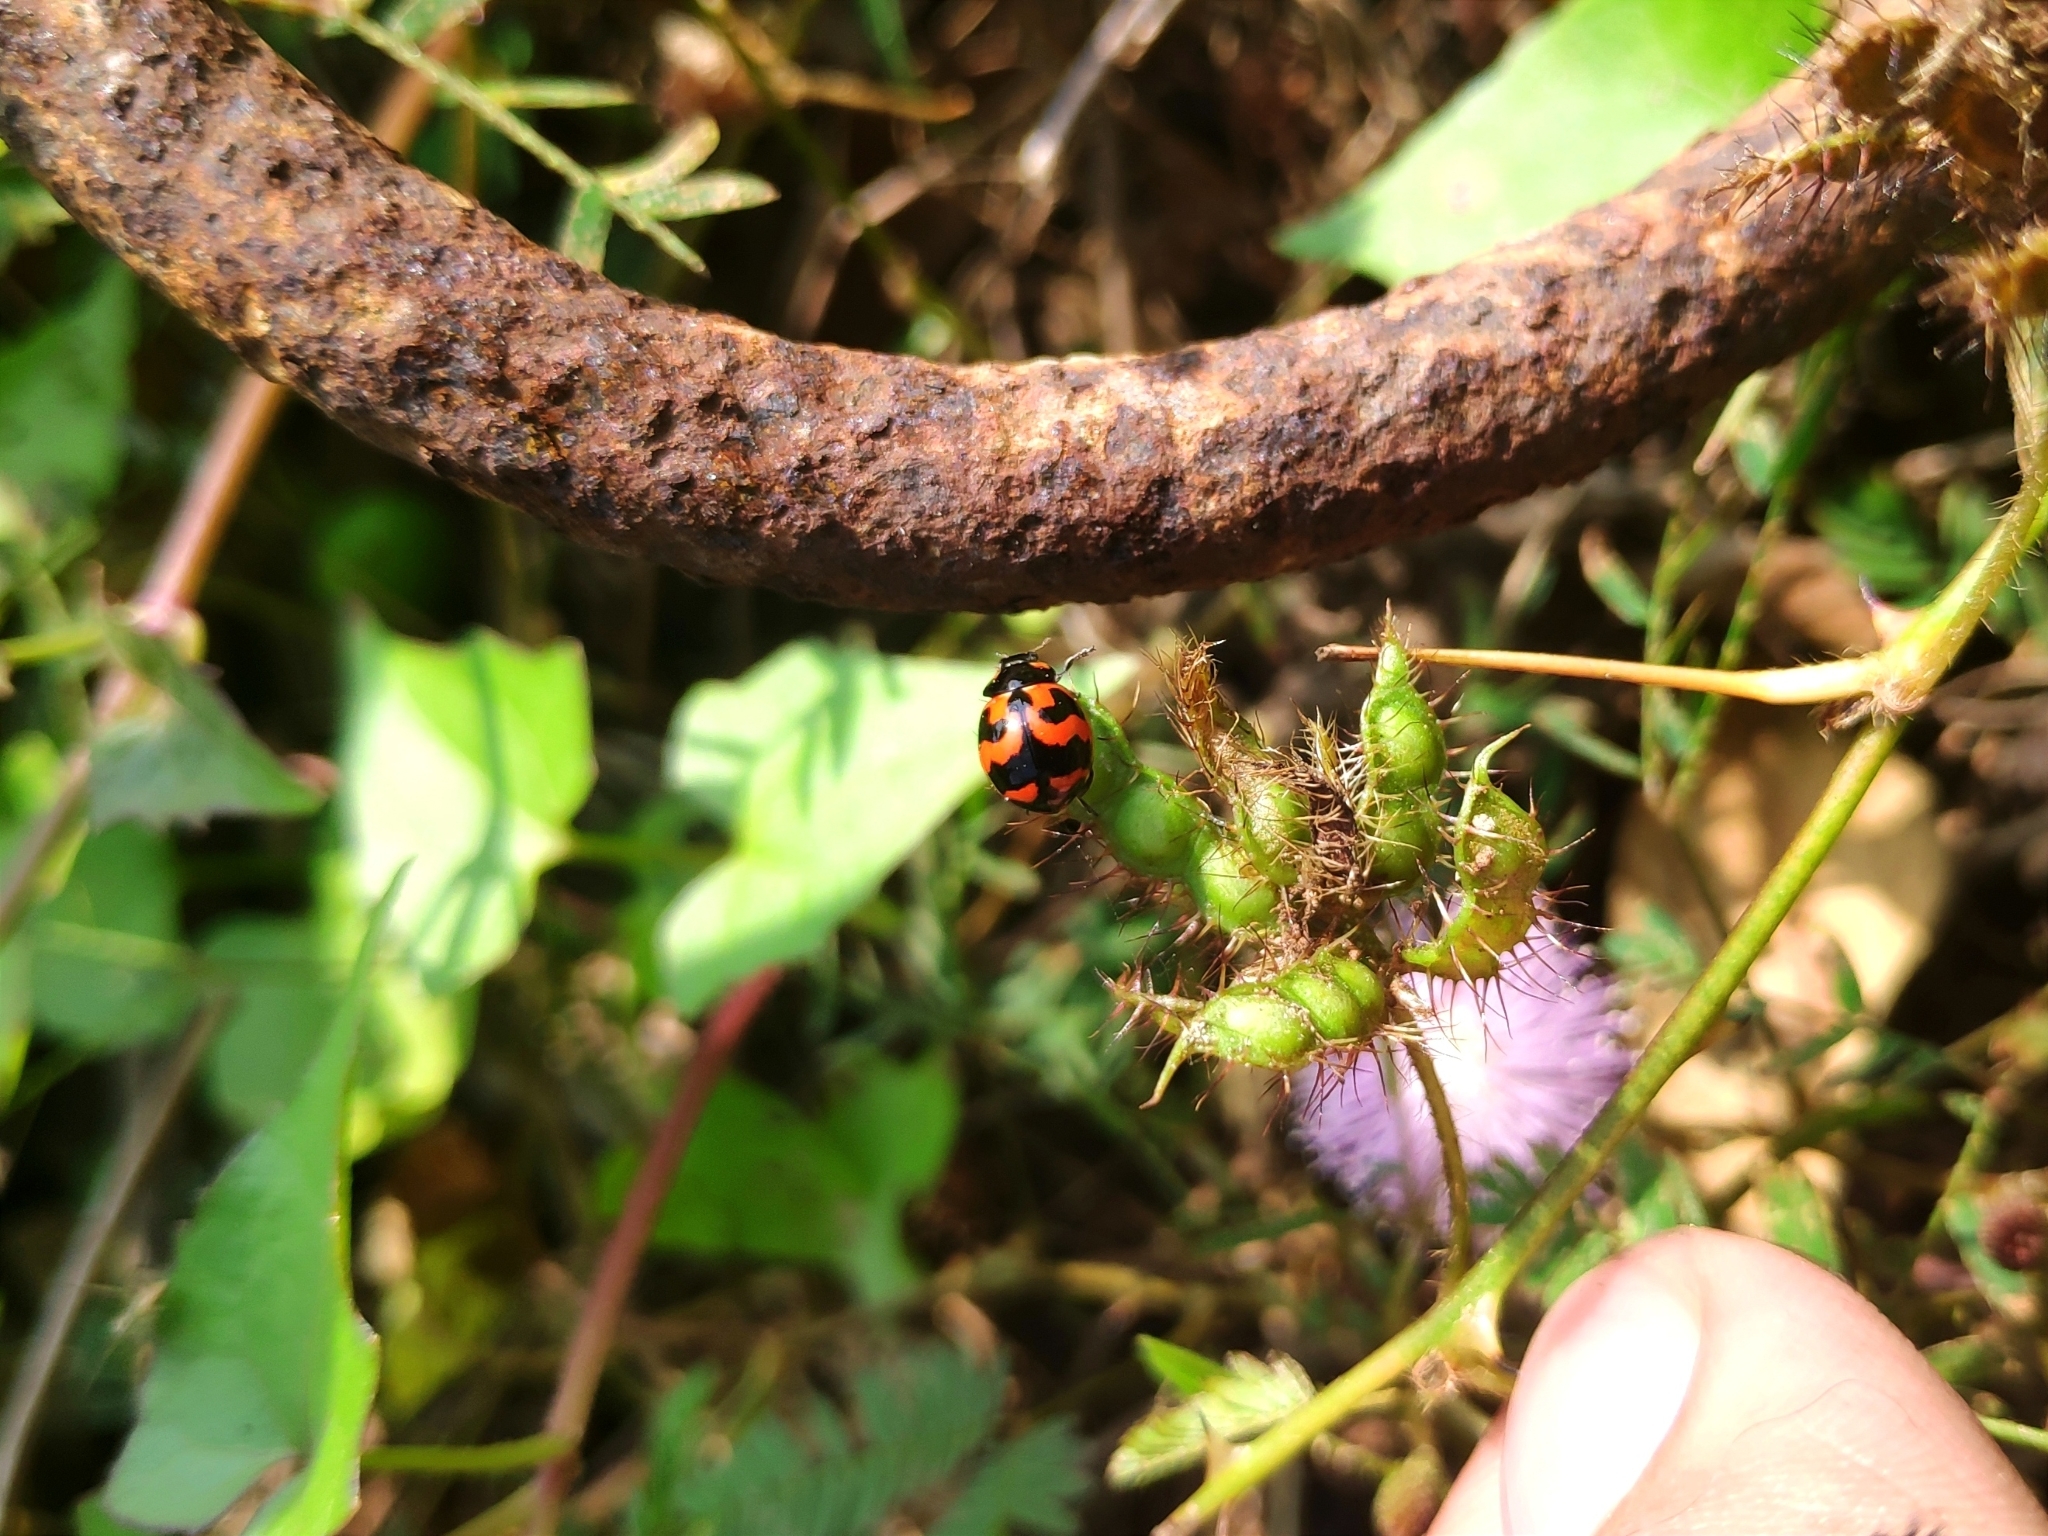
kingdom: Animalia
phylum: Arthropoda
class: Insecta
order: Coleoptera
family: Coccinellidae
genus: Coccinella
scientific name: Coccinella transversalis
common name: Transverse lady beetle
